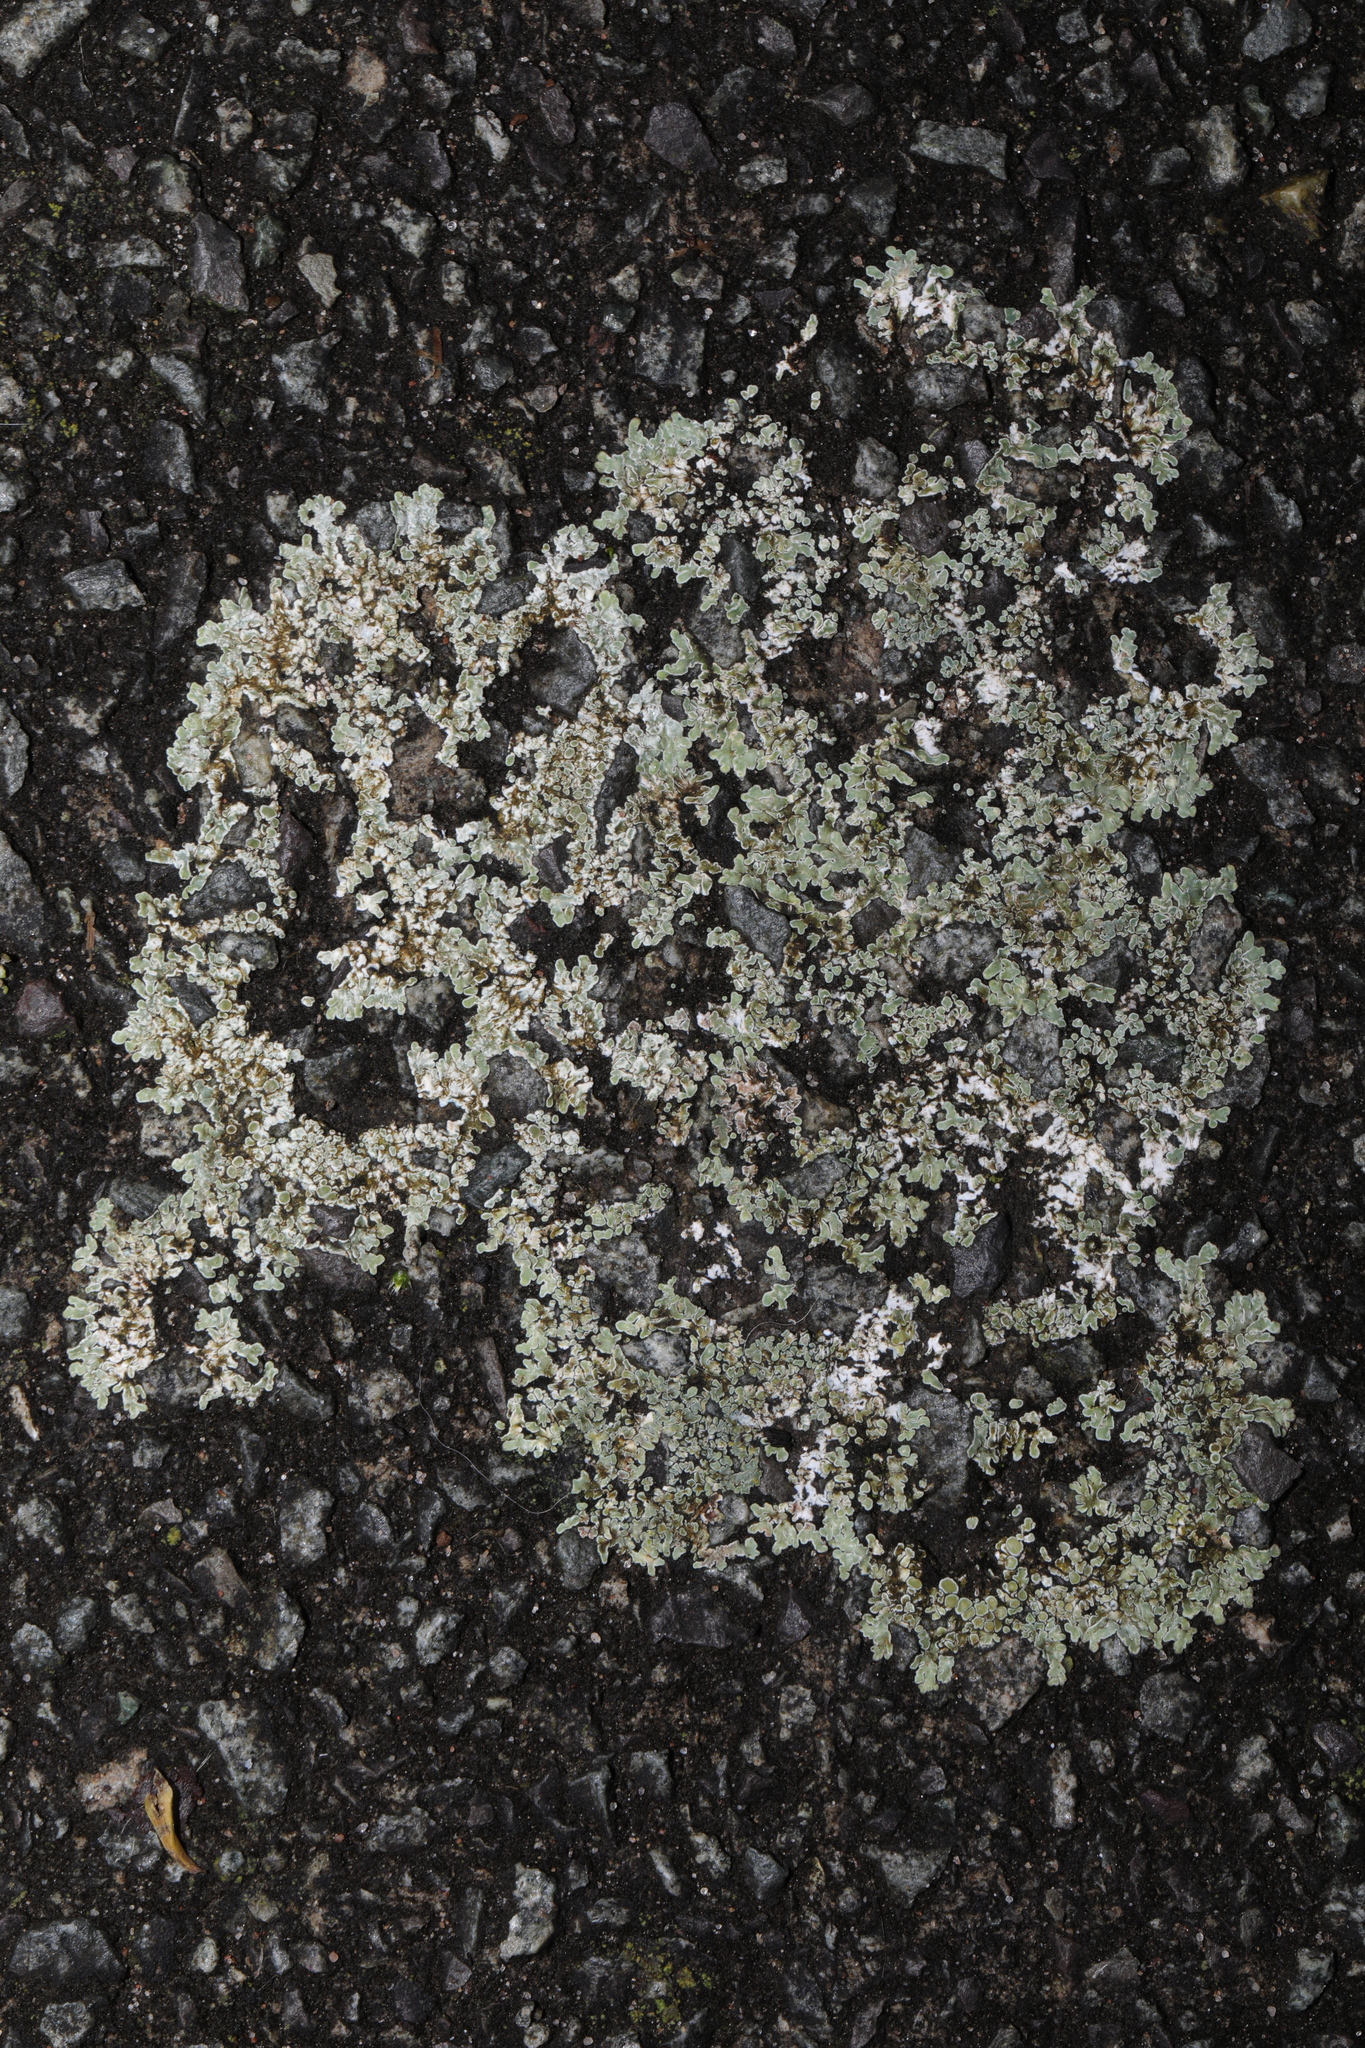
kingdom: Fungi
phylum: Ascomycota
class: Lecanoromycetes
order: Lecanorales
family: Lecanoraceae
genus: Protoparmeliopsis
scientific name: Protoparmeliopsis muralis
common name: Stonewall rim lichen
